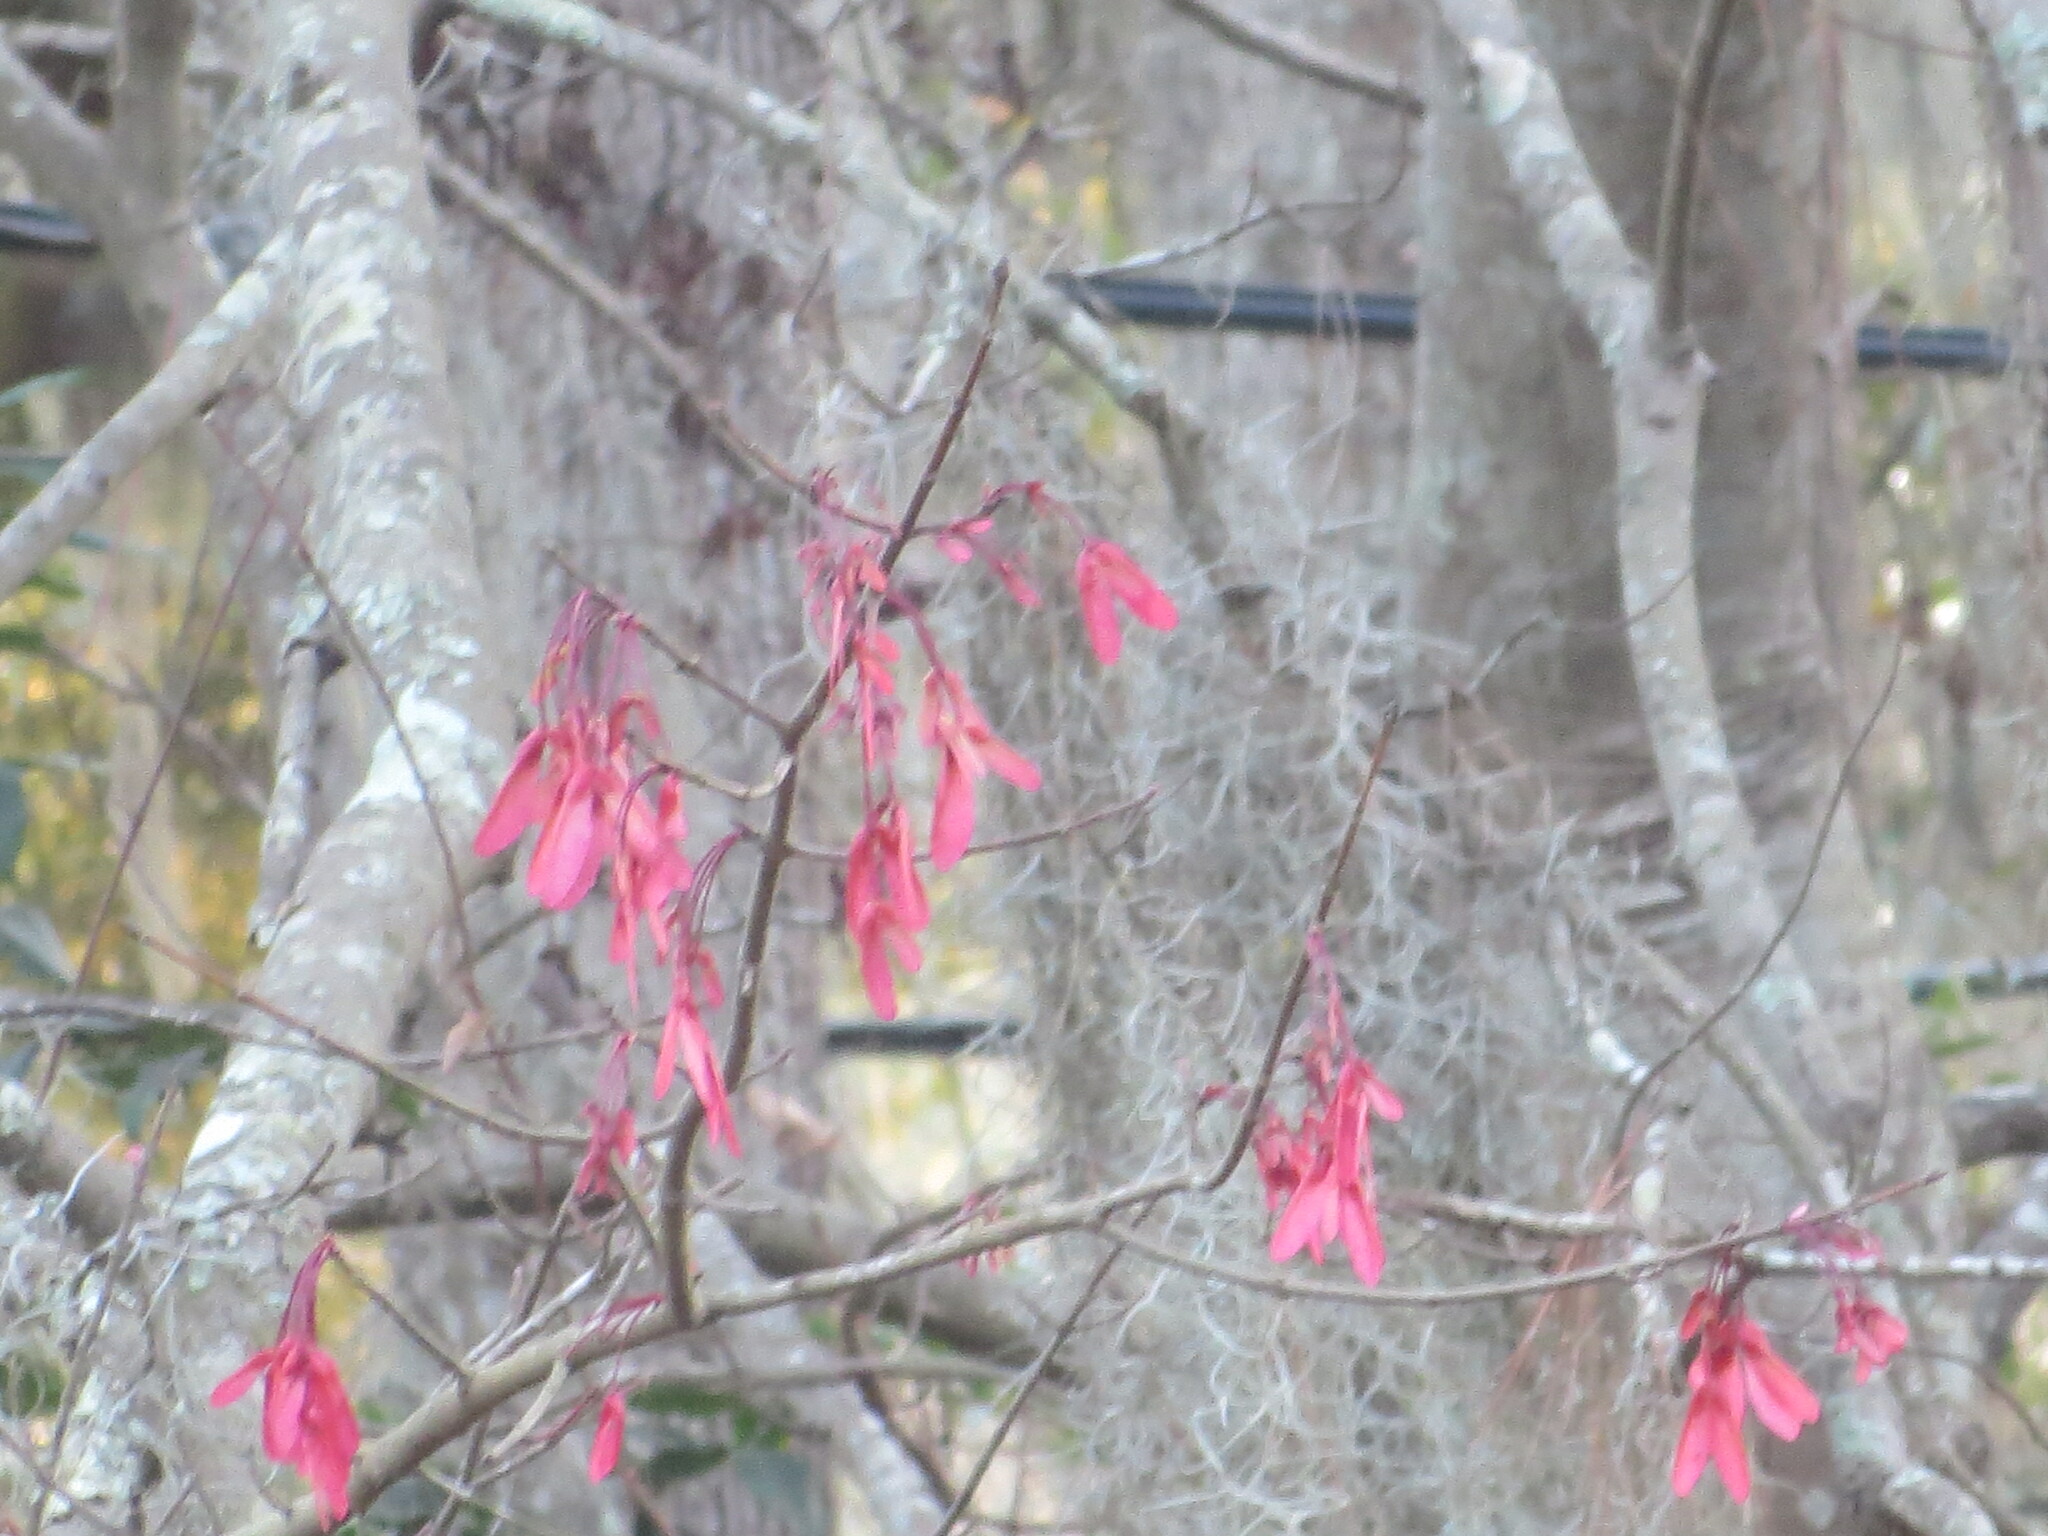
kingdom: Plantae
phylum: Tracheophyta
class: Magnoliopsida
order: Sapindales
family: Sapindaceae
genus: Acer
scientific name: Acer rubrum
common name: Red maple
